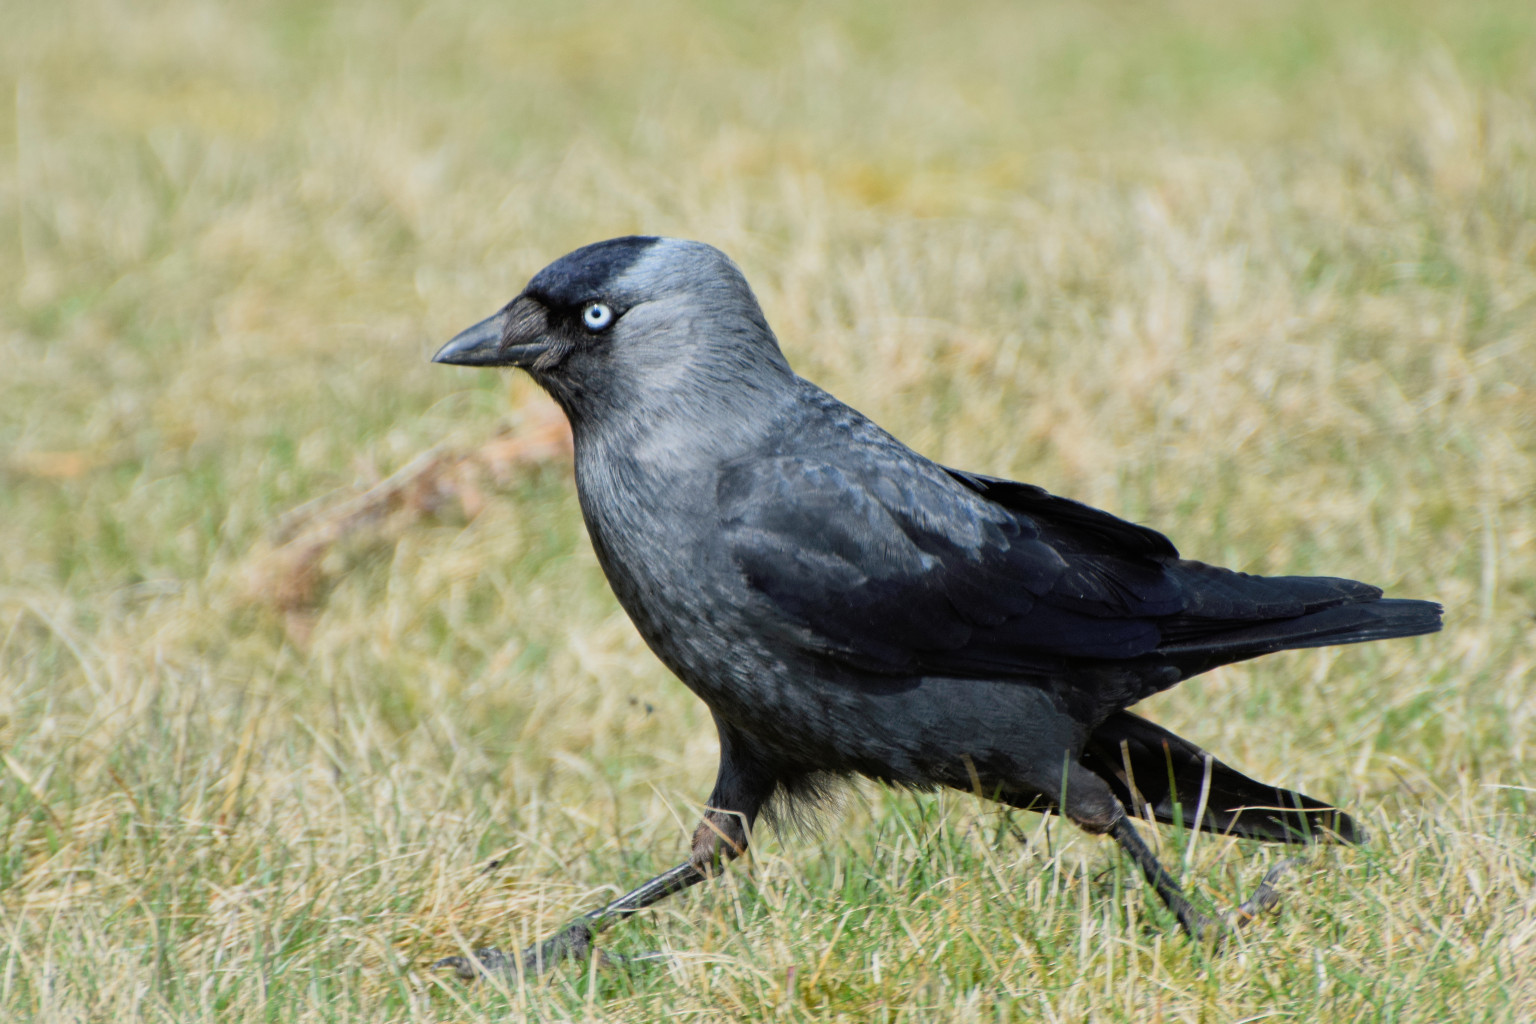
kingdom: Animalia
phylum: Chordata
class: Aves
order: Passeriformes
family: Corvidae
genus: Coloeus
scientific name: Coloeus monedula
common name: Western jackdaw
